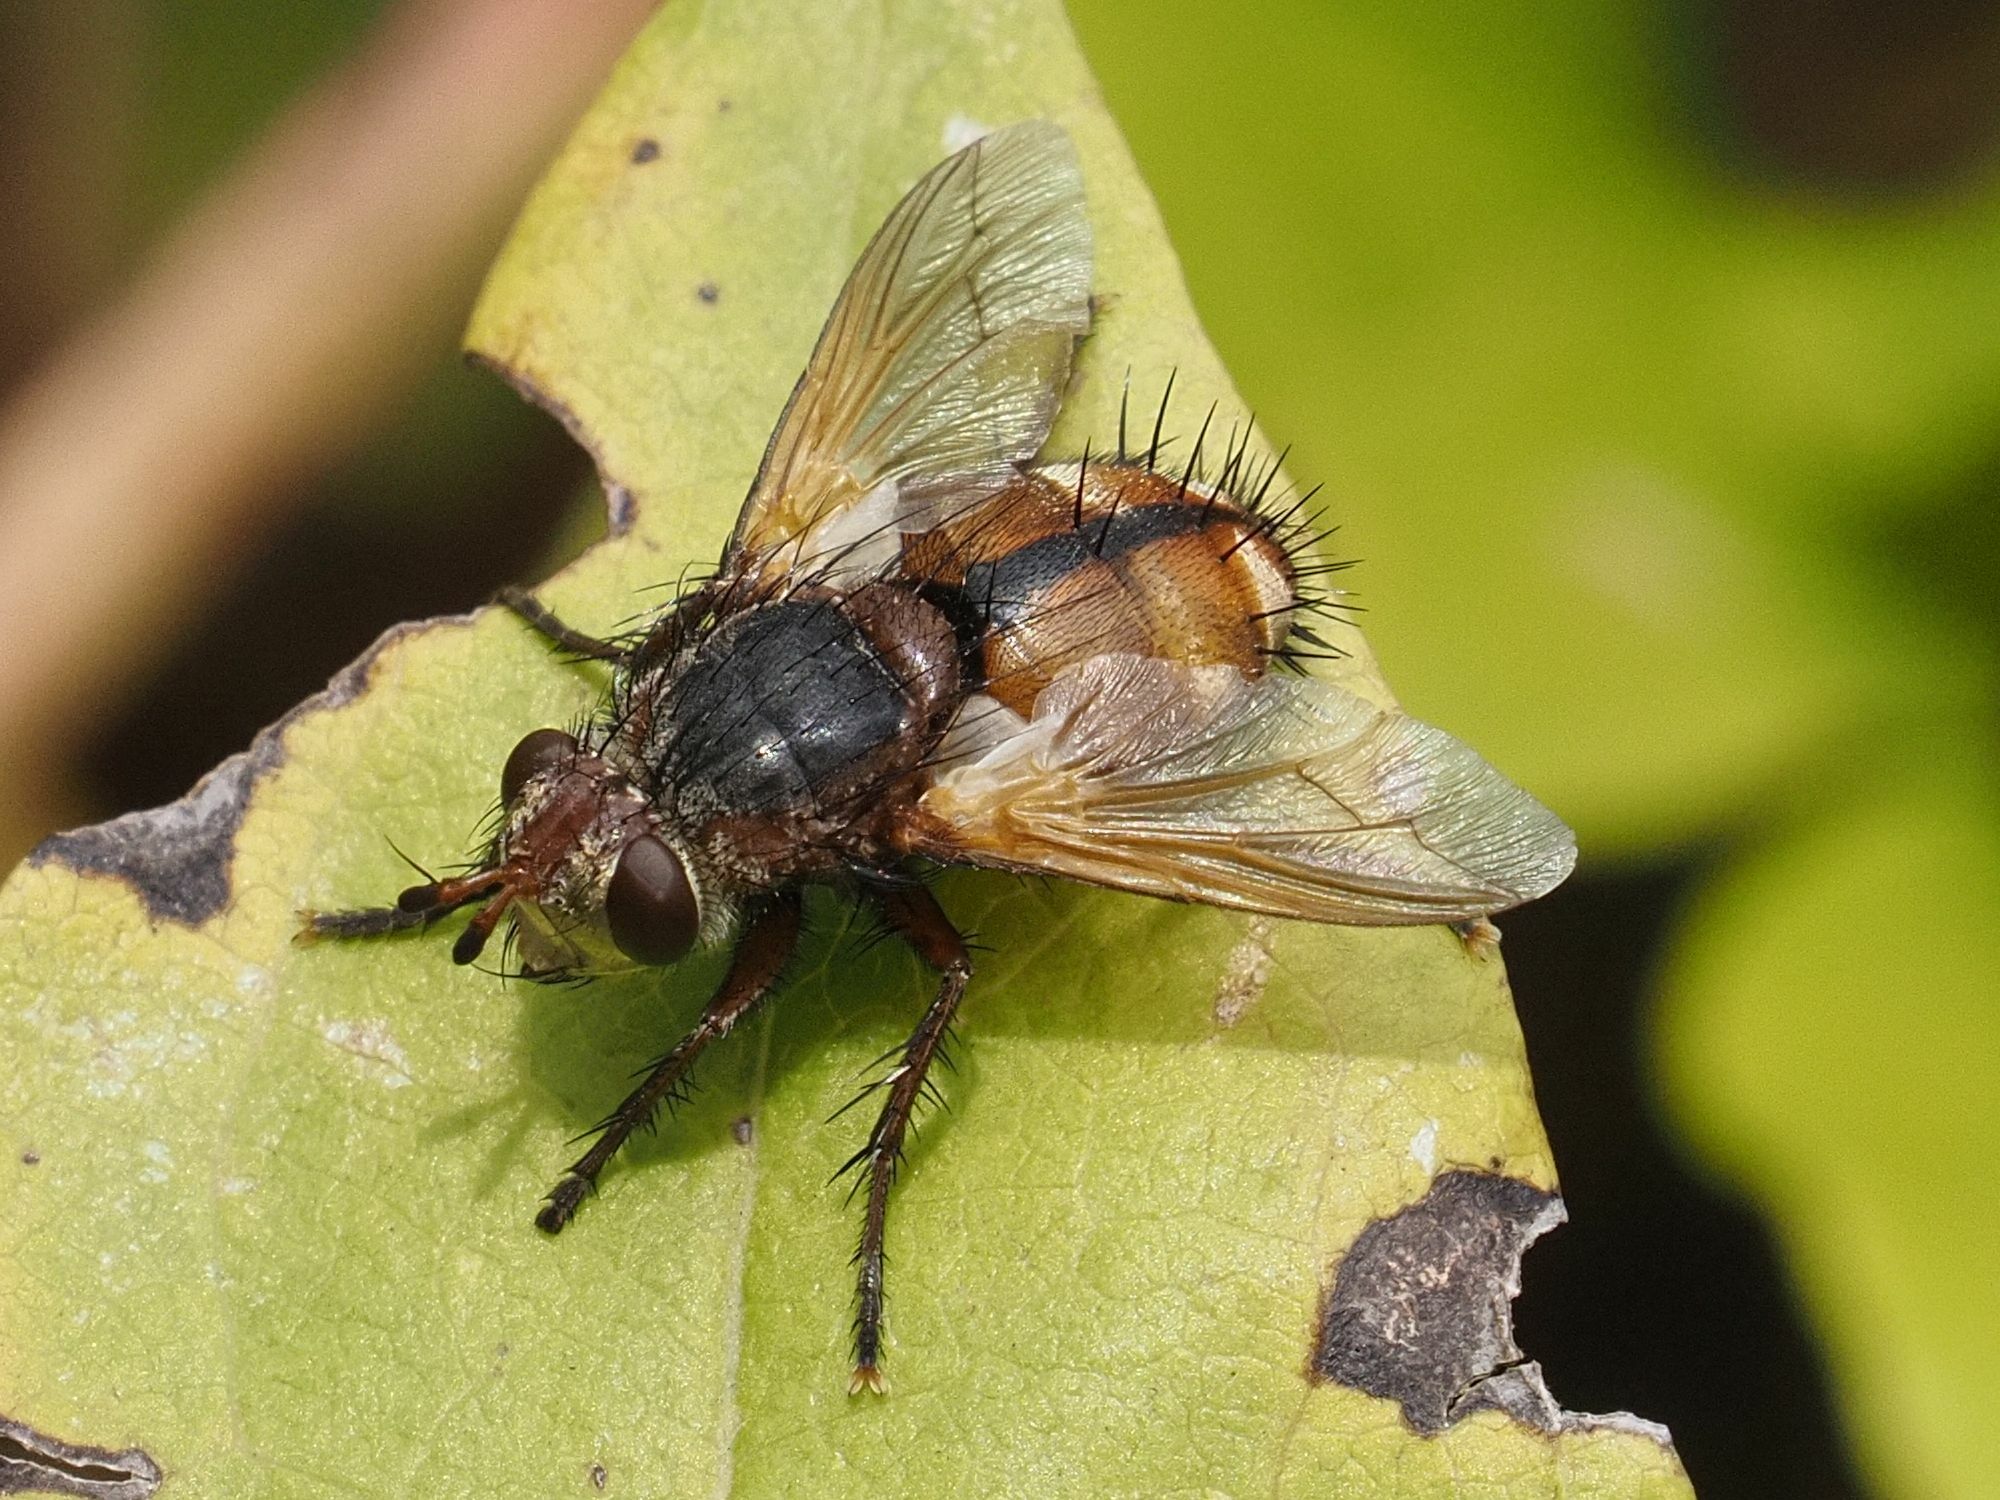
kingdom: Animalia
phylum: Arthropoda
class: Insecta
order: Diptera
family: Tachinidae
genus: Tachina
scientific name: Tachina fera
